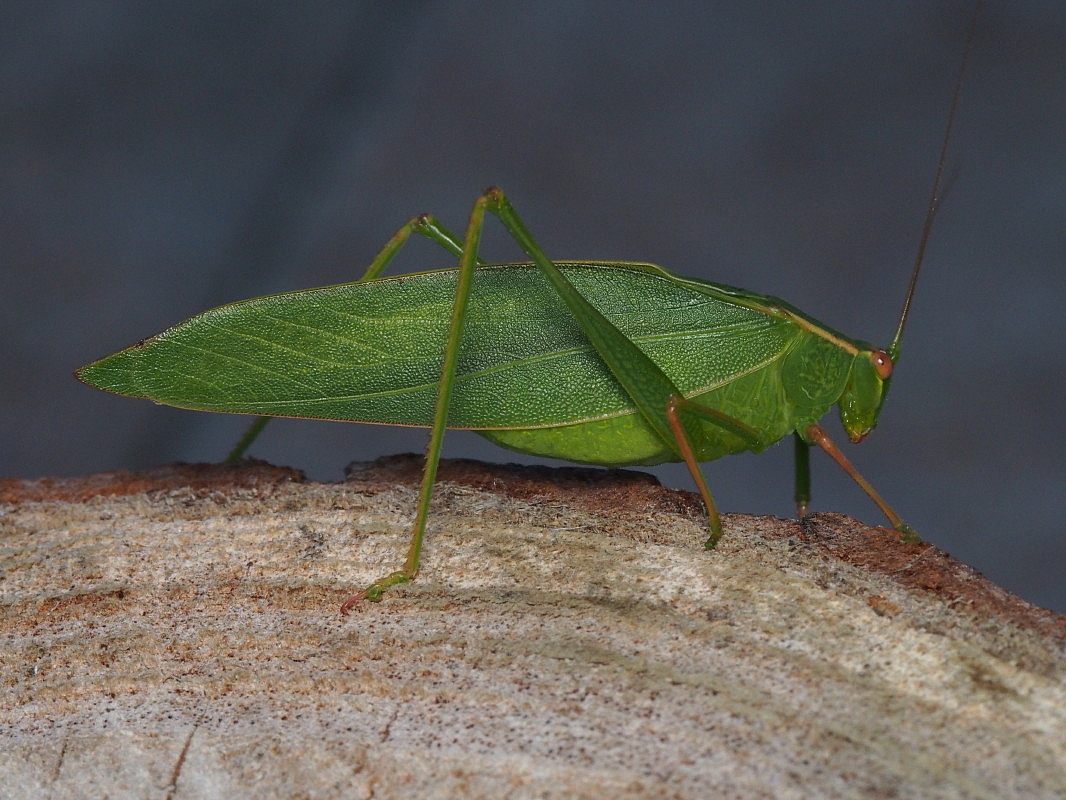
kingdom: Animalia
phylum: Arthropoda
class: Insecta
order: Orthoptera
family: Tettigoniidae
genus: Caedicia
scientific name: Caedicia simplex
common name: Common garden katydid
